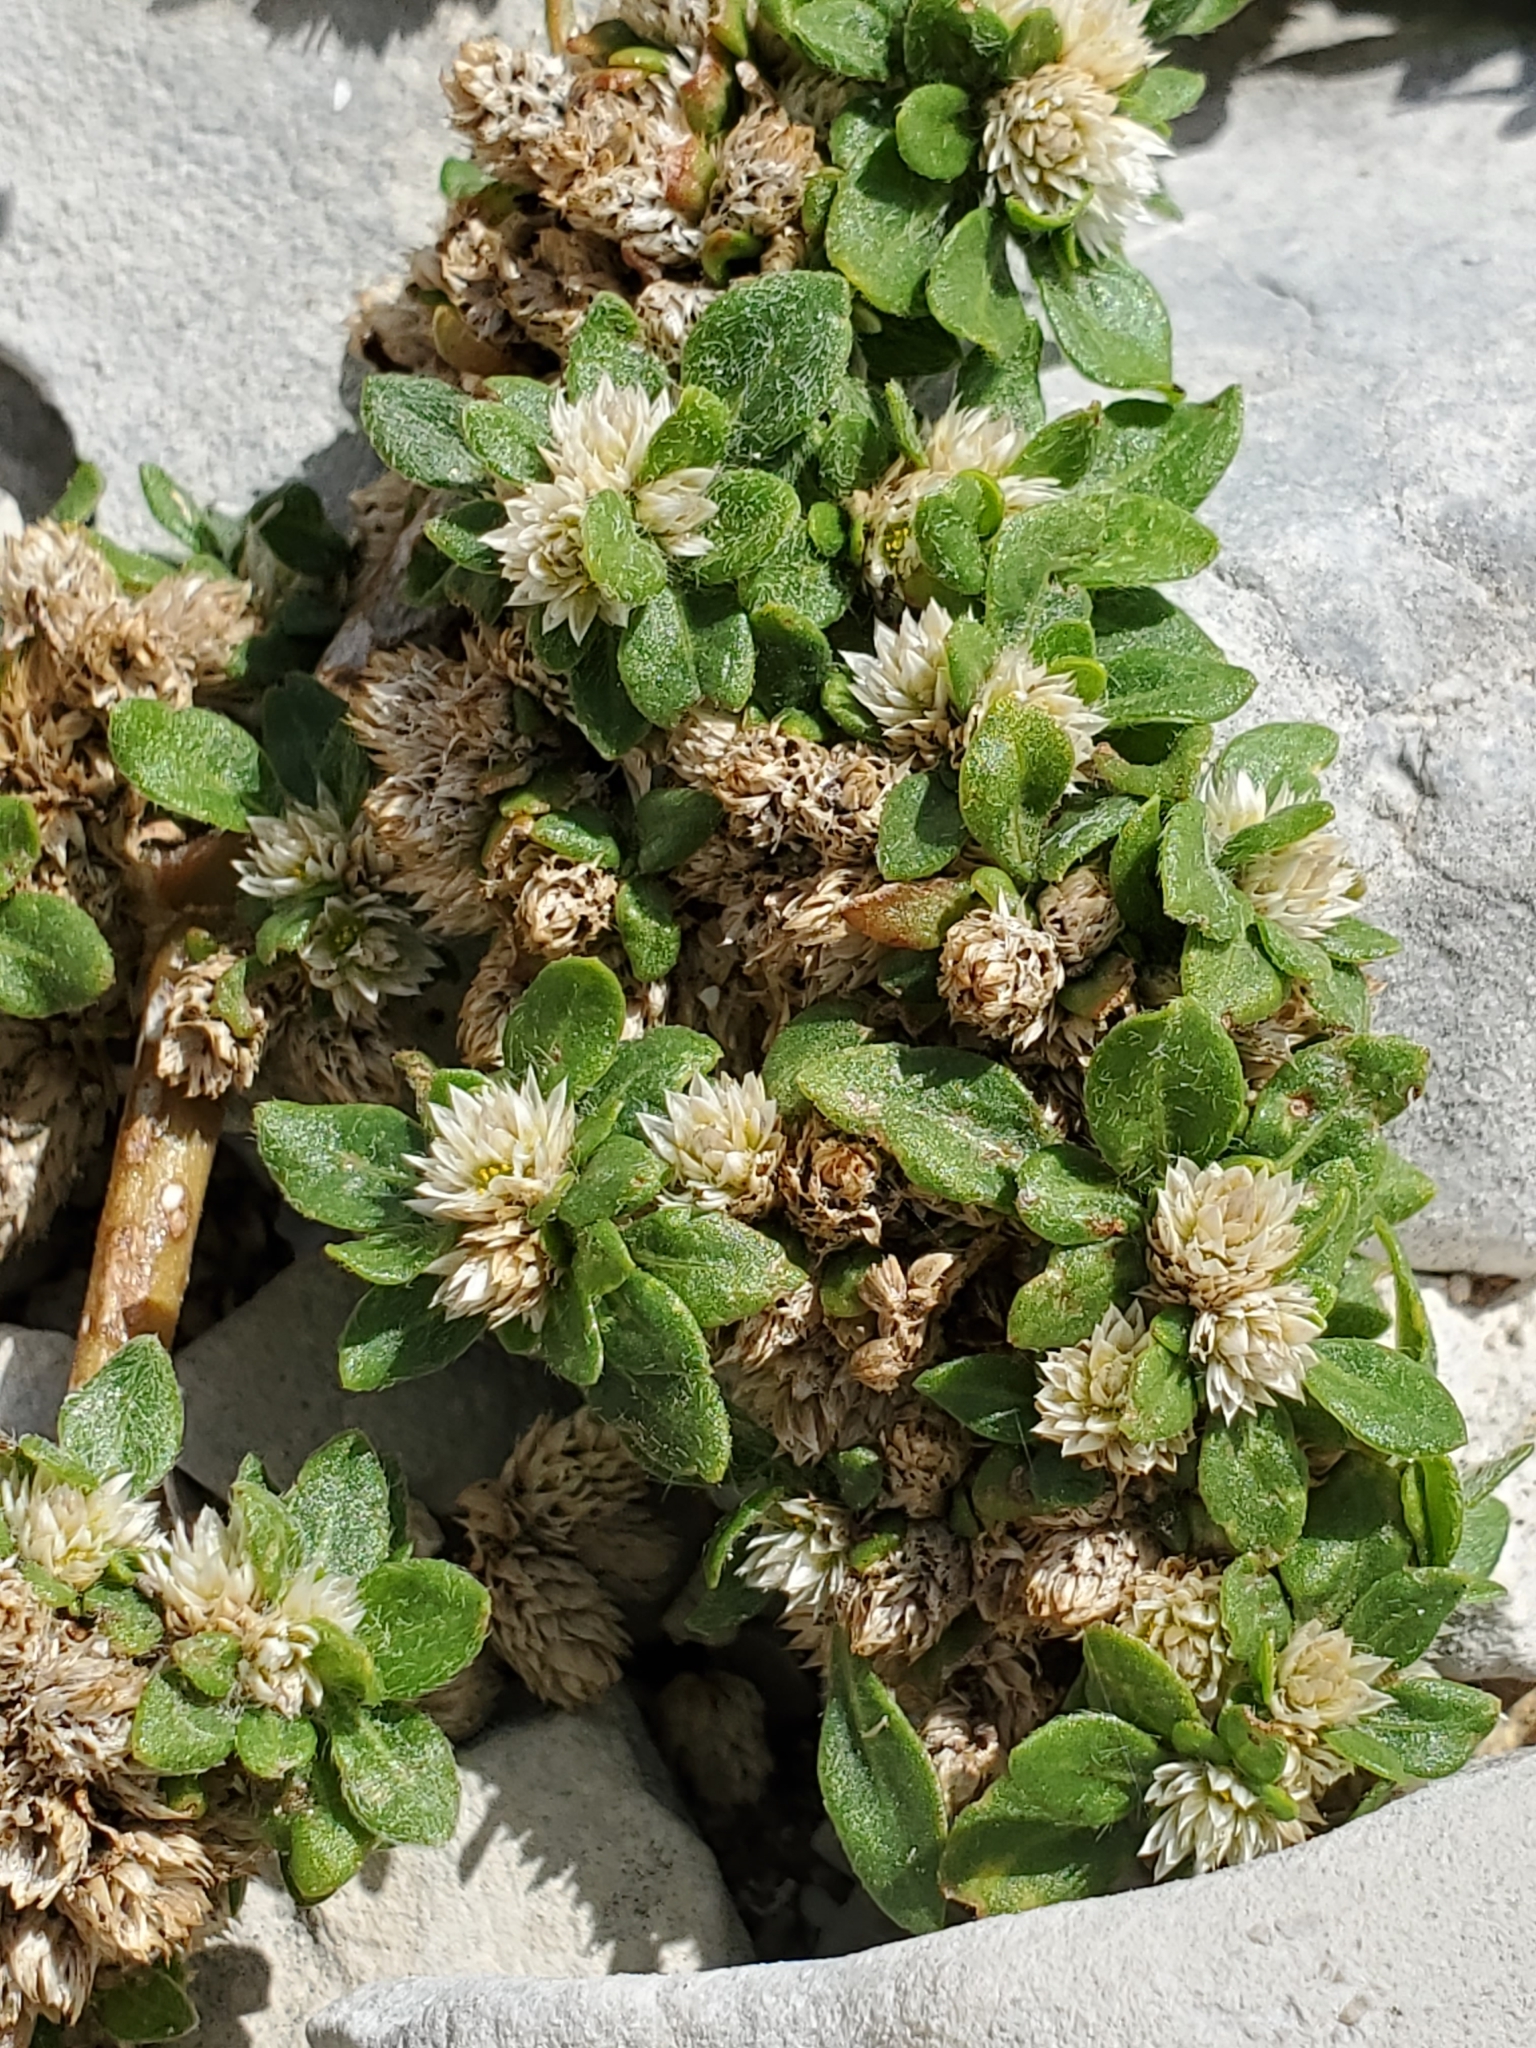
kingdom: Plantae
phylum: Tracheophyta
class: Magnoliopsida
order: Caryophyllales
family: Amaranthaceae
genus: Alternanthera
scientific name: Alternanthera caracasana
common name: Washerwoman
